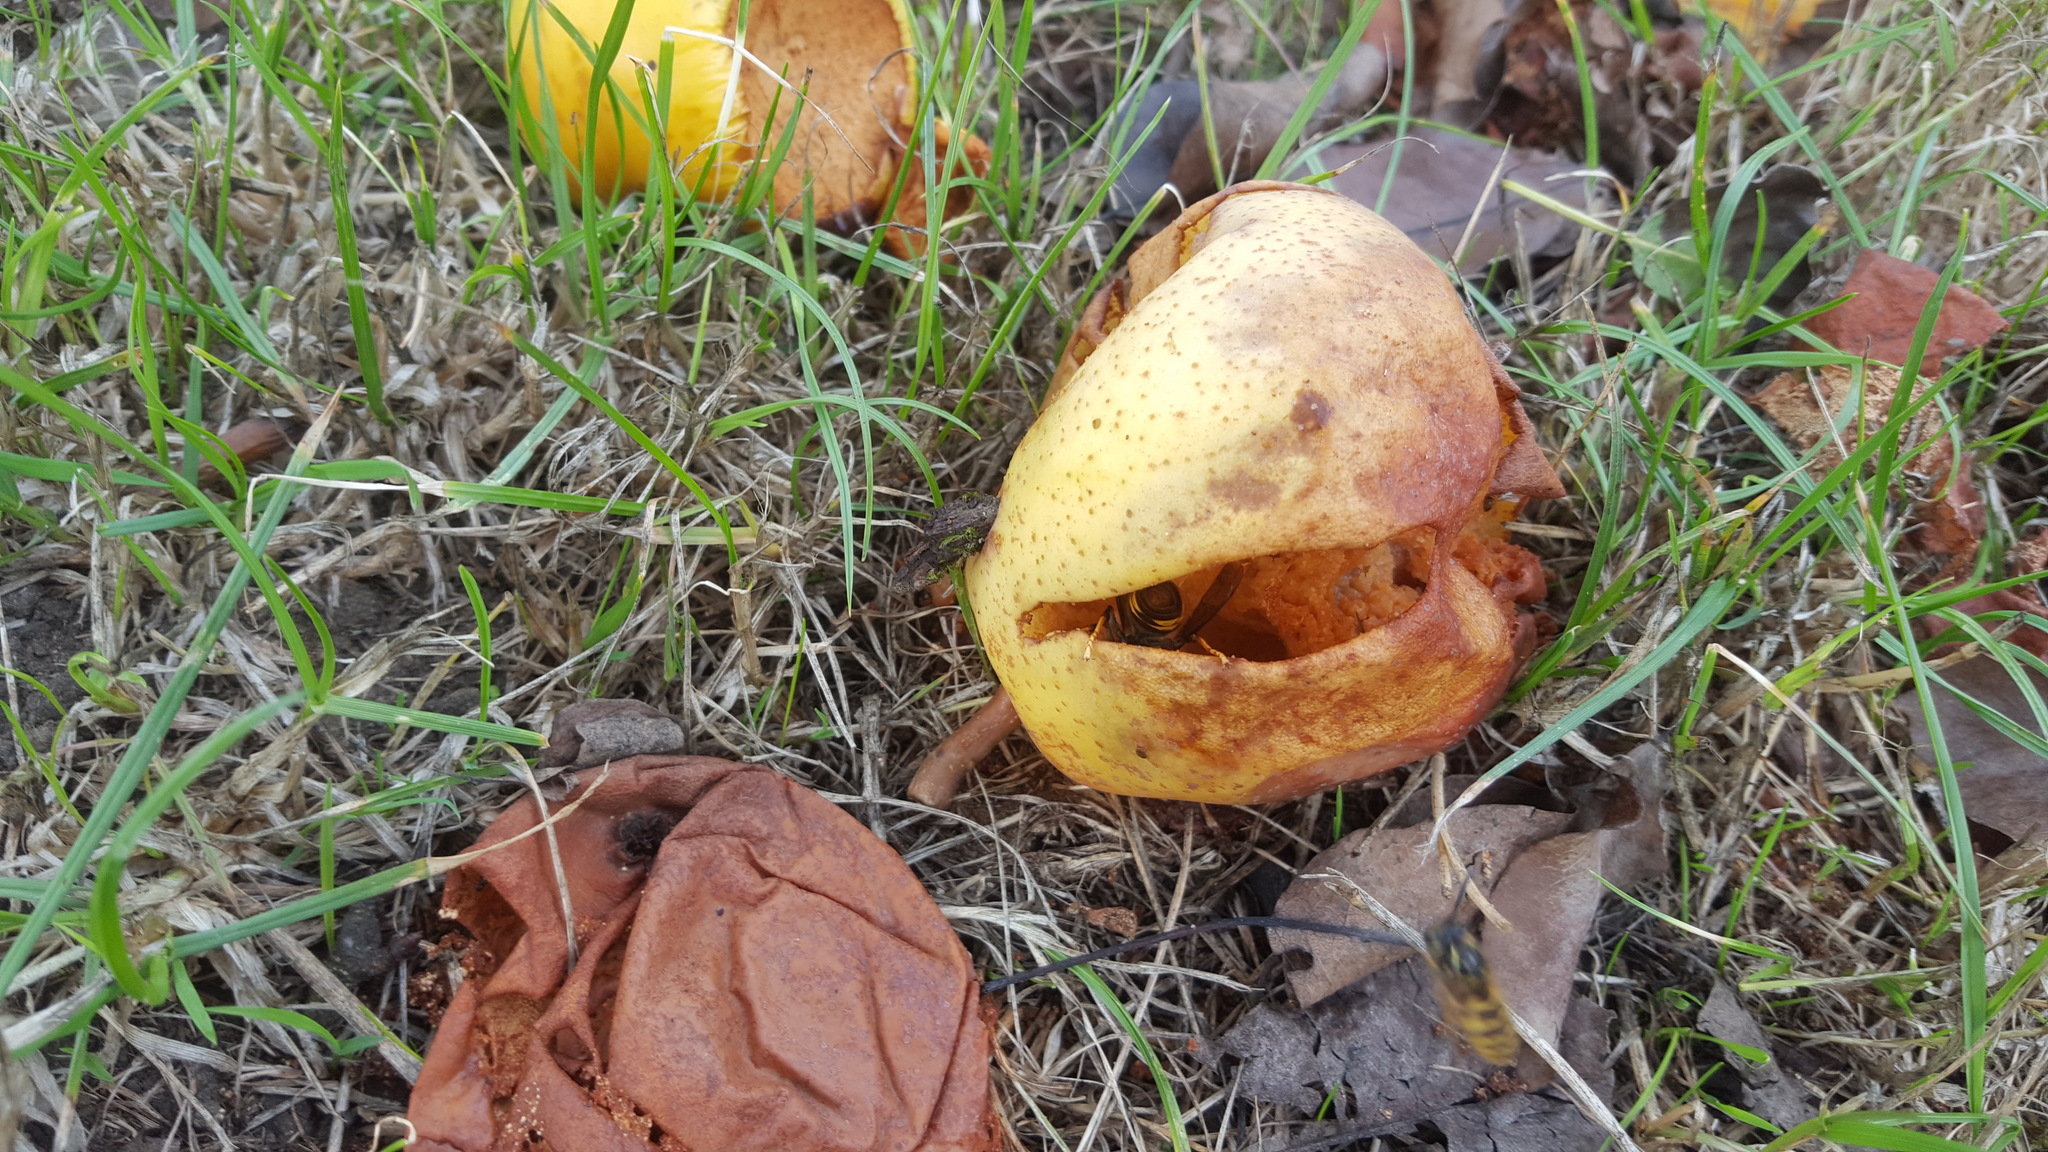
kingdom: Animalia
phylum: Arthropoda
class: Insecta
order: Hymenoptera
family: Vespidae
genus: Vespa
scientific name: Vespa velutina
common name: Asian hornet
